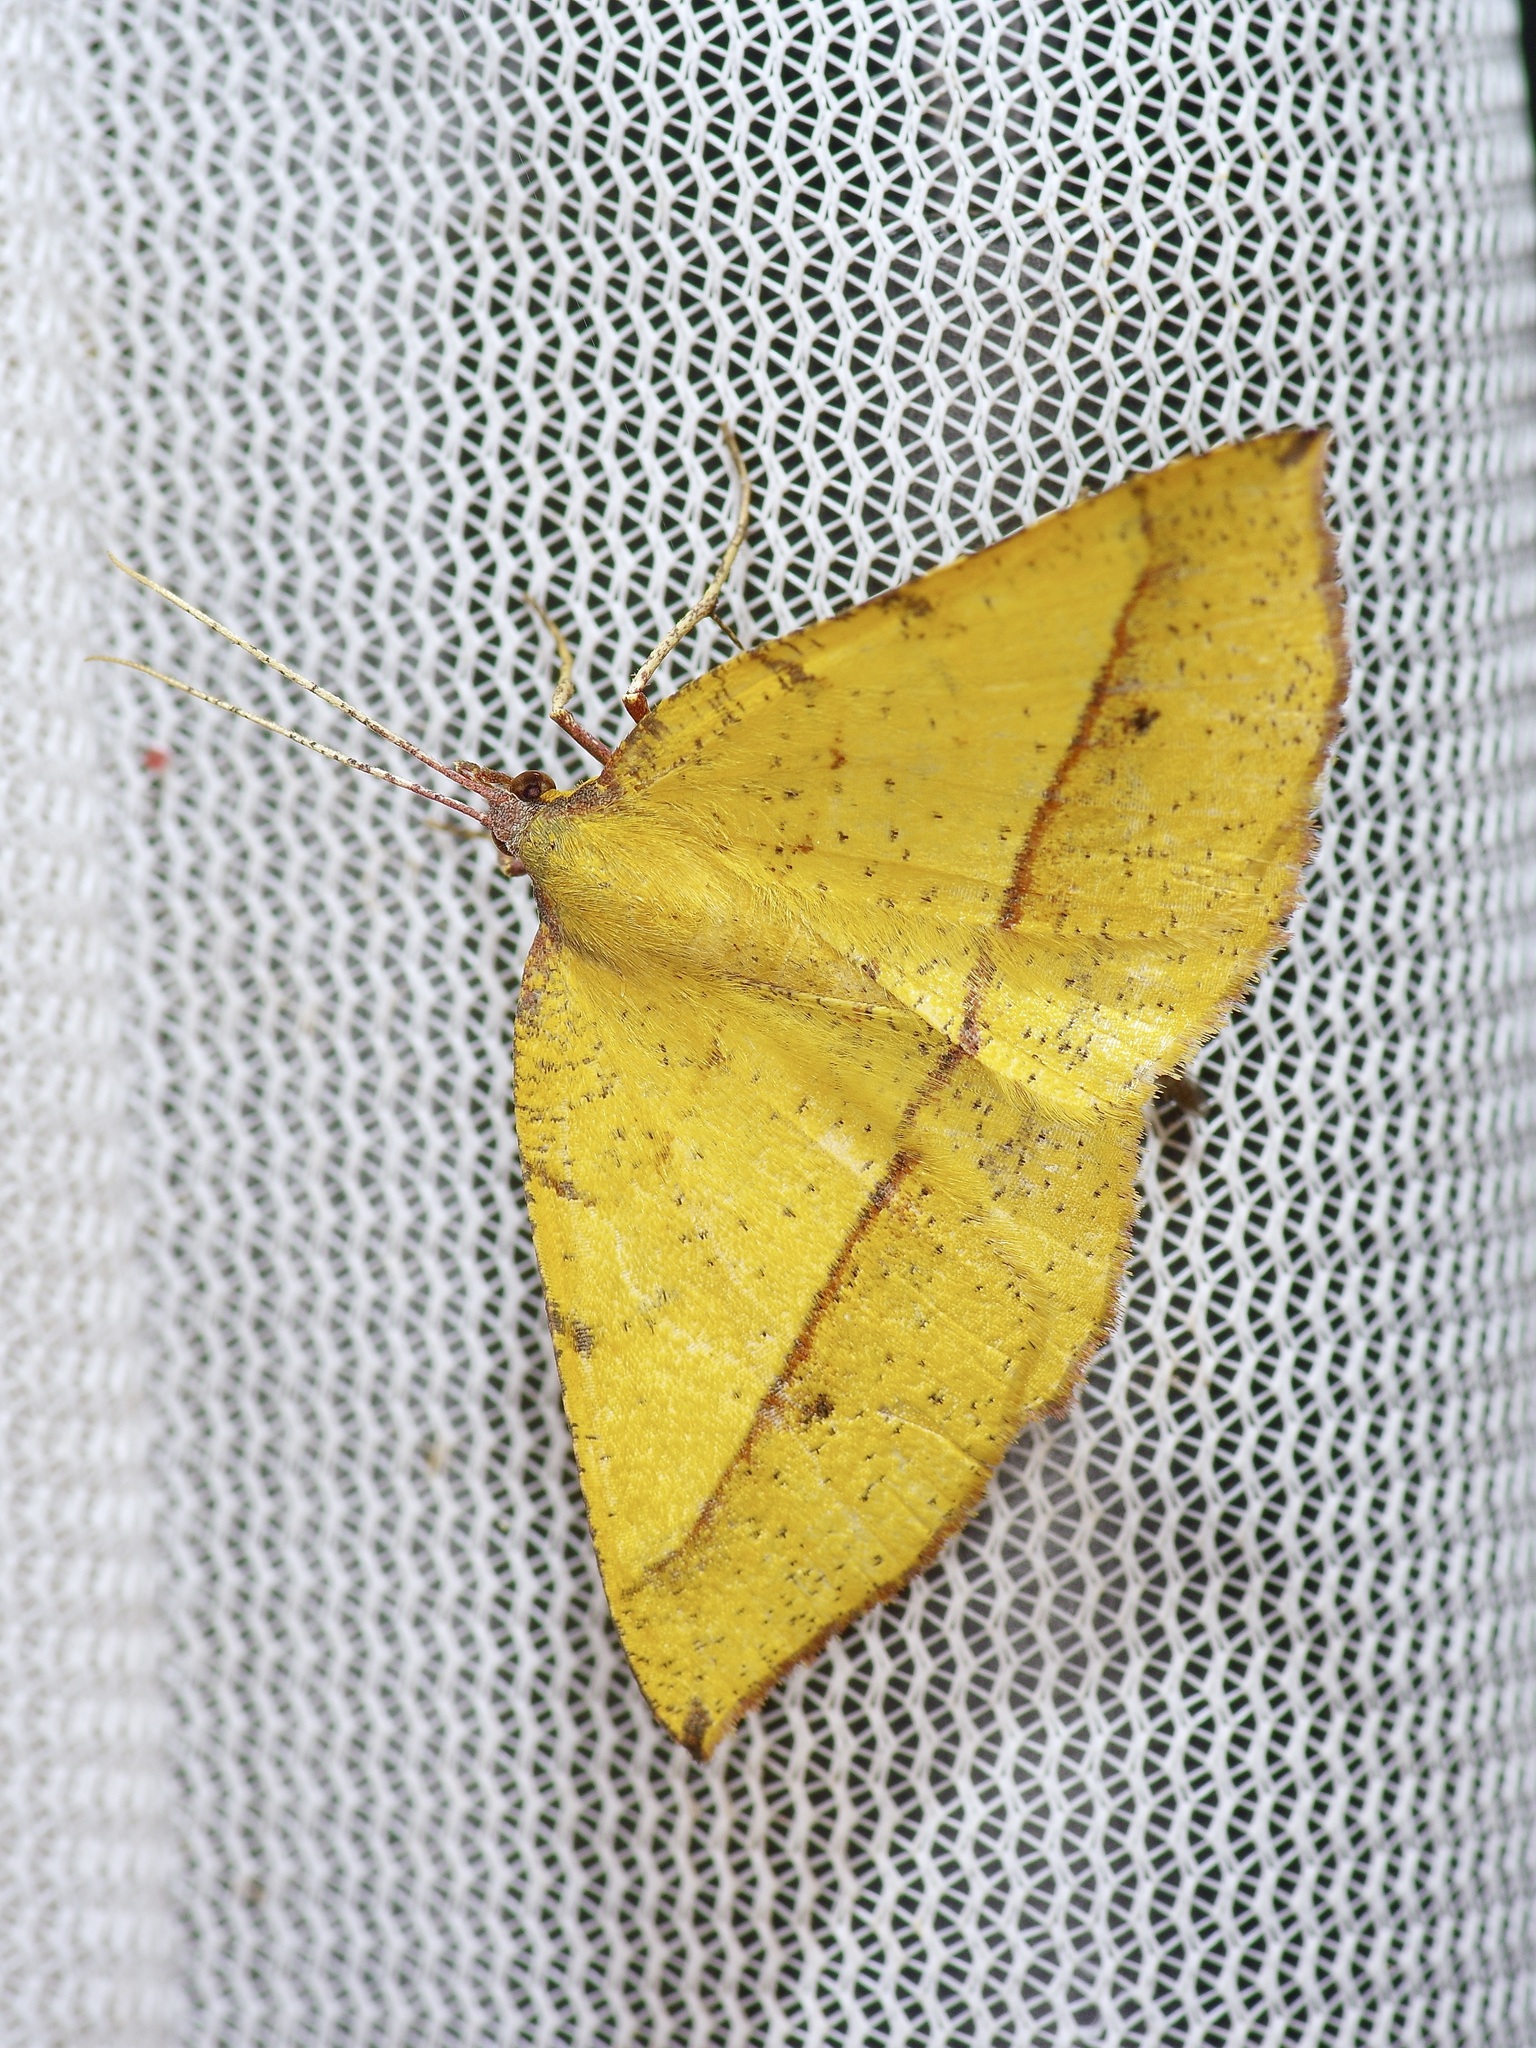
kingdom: Animalia
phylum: Arthropoda
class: Insecta
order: Lepidoptera
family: Geometridae
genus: Erastria
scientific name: Erastria cruentaria
